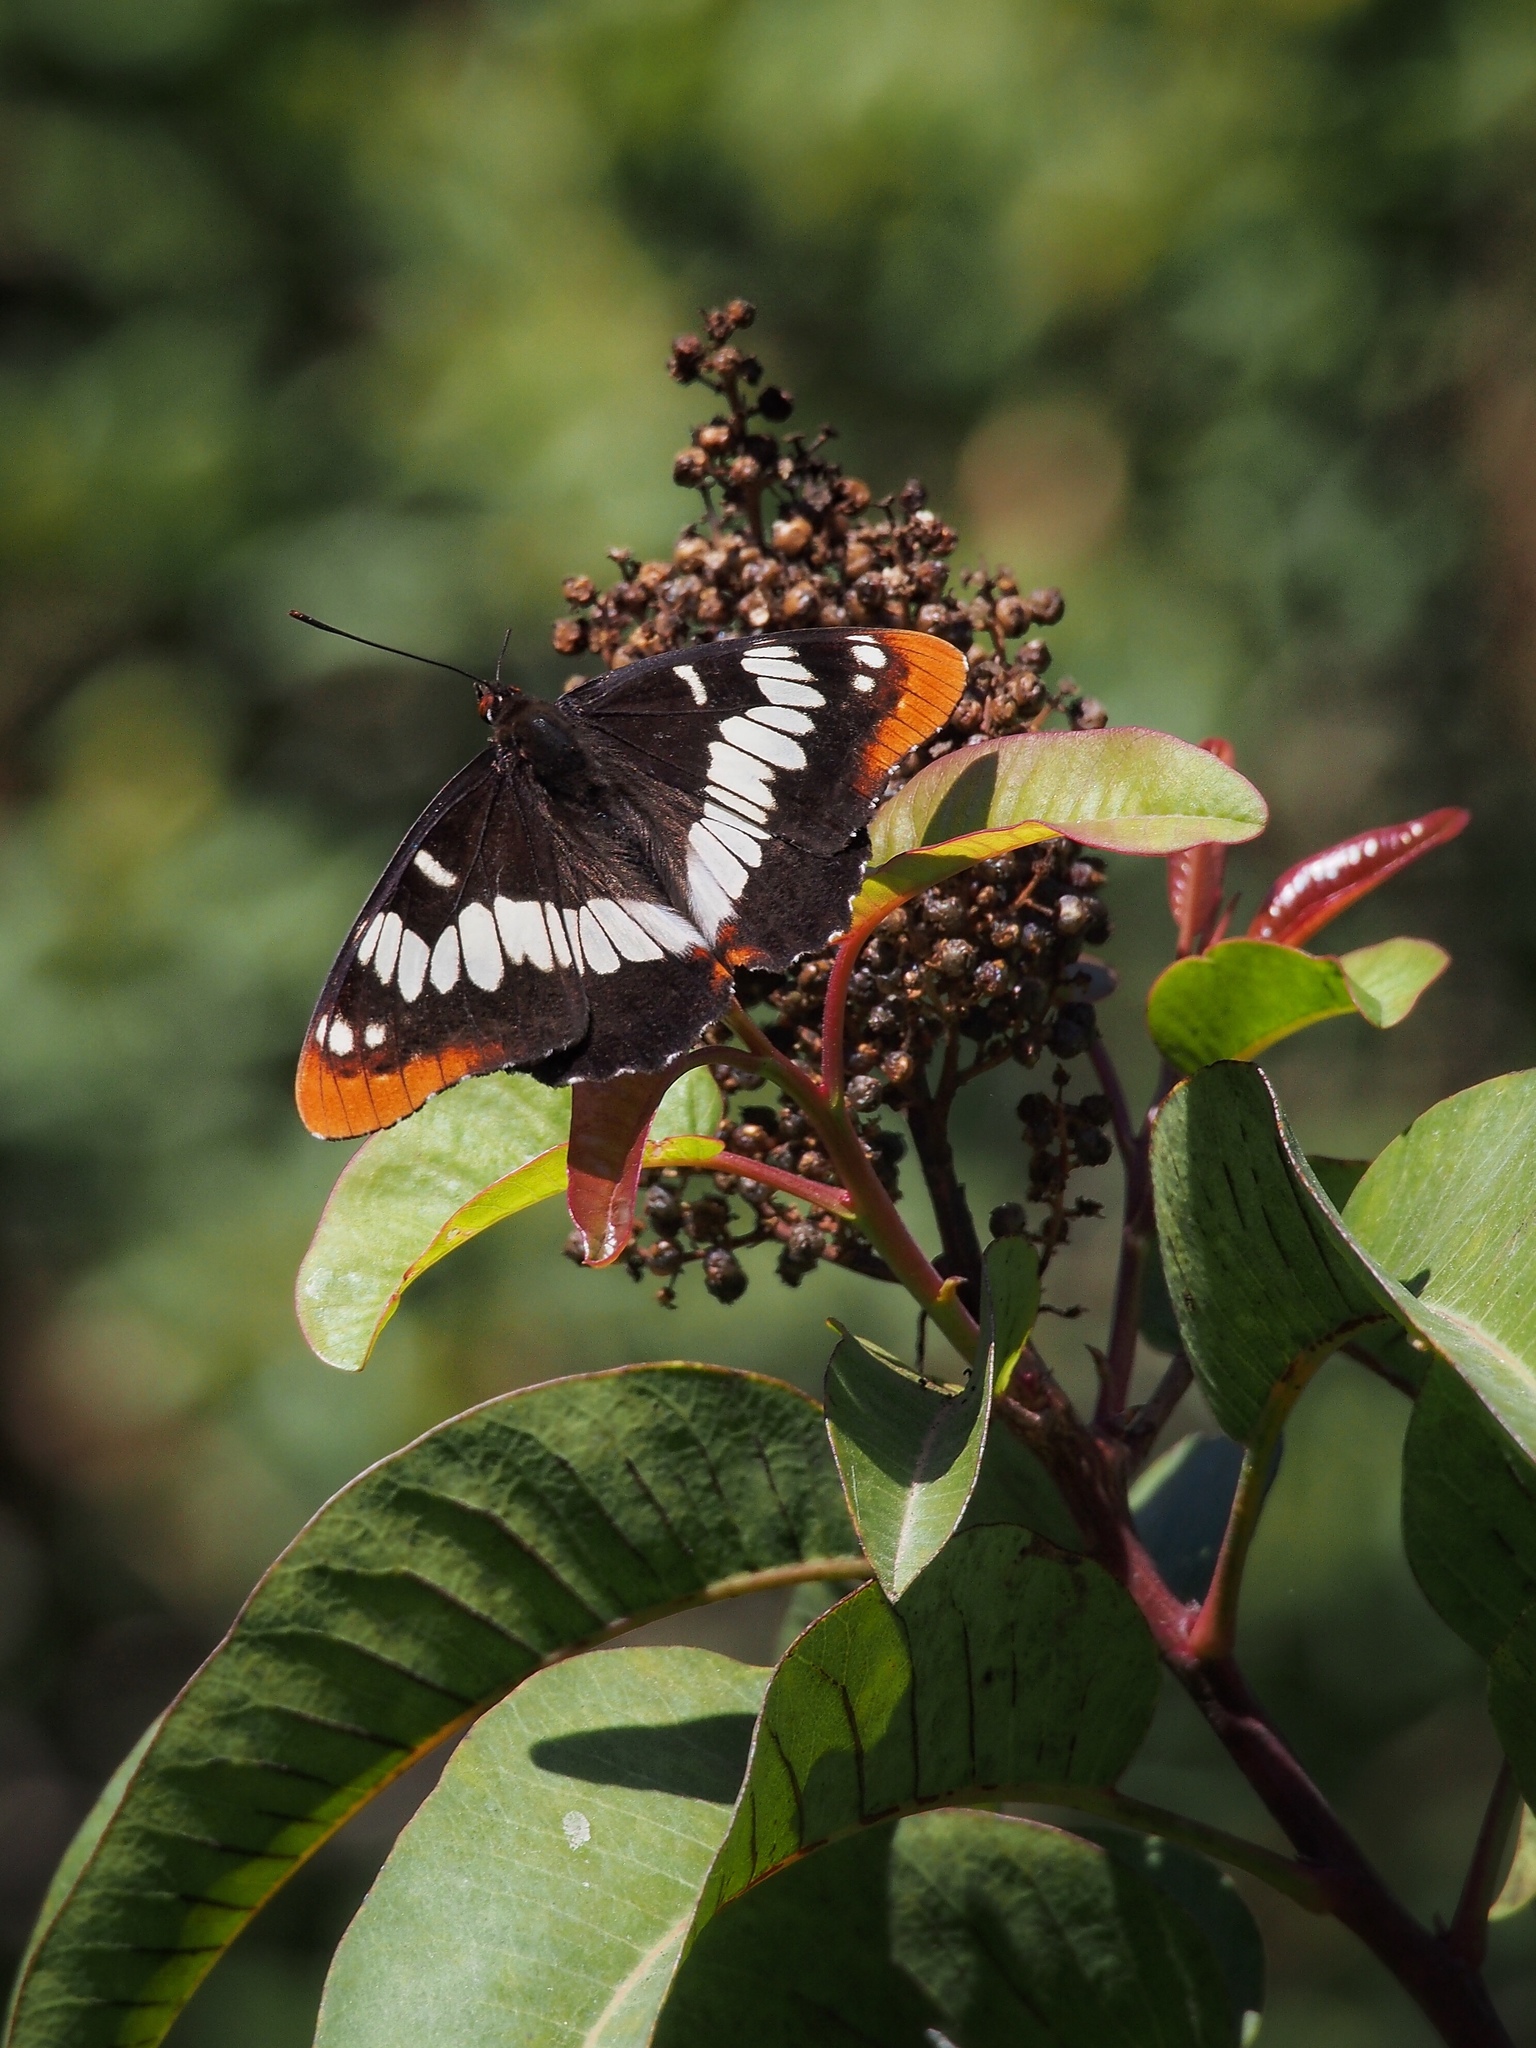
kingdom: Animalia
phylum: Arthropoda
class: Insecta
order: Lepidoptera
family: Nymphalidae
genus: Limenitis
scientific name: Limenitis lorquini
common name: Lorquin's admiral
